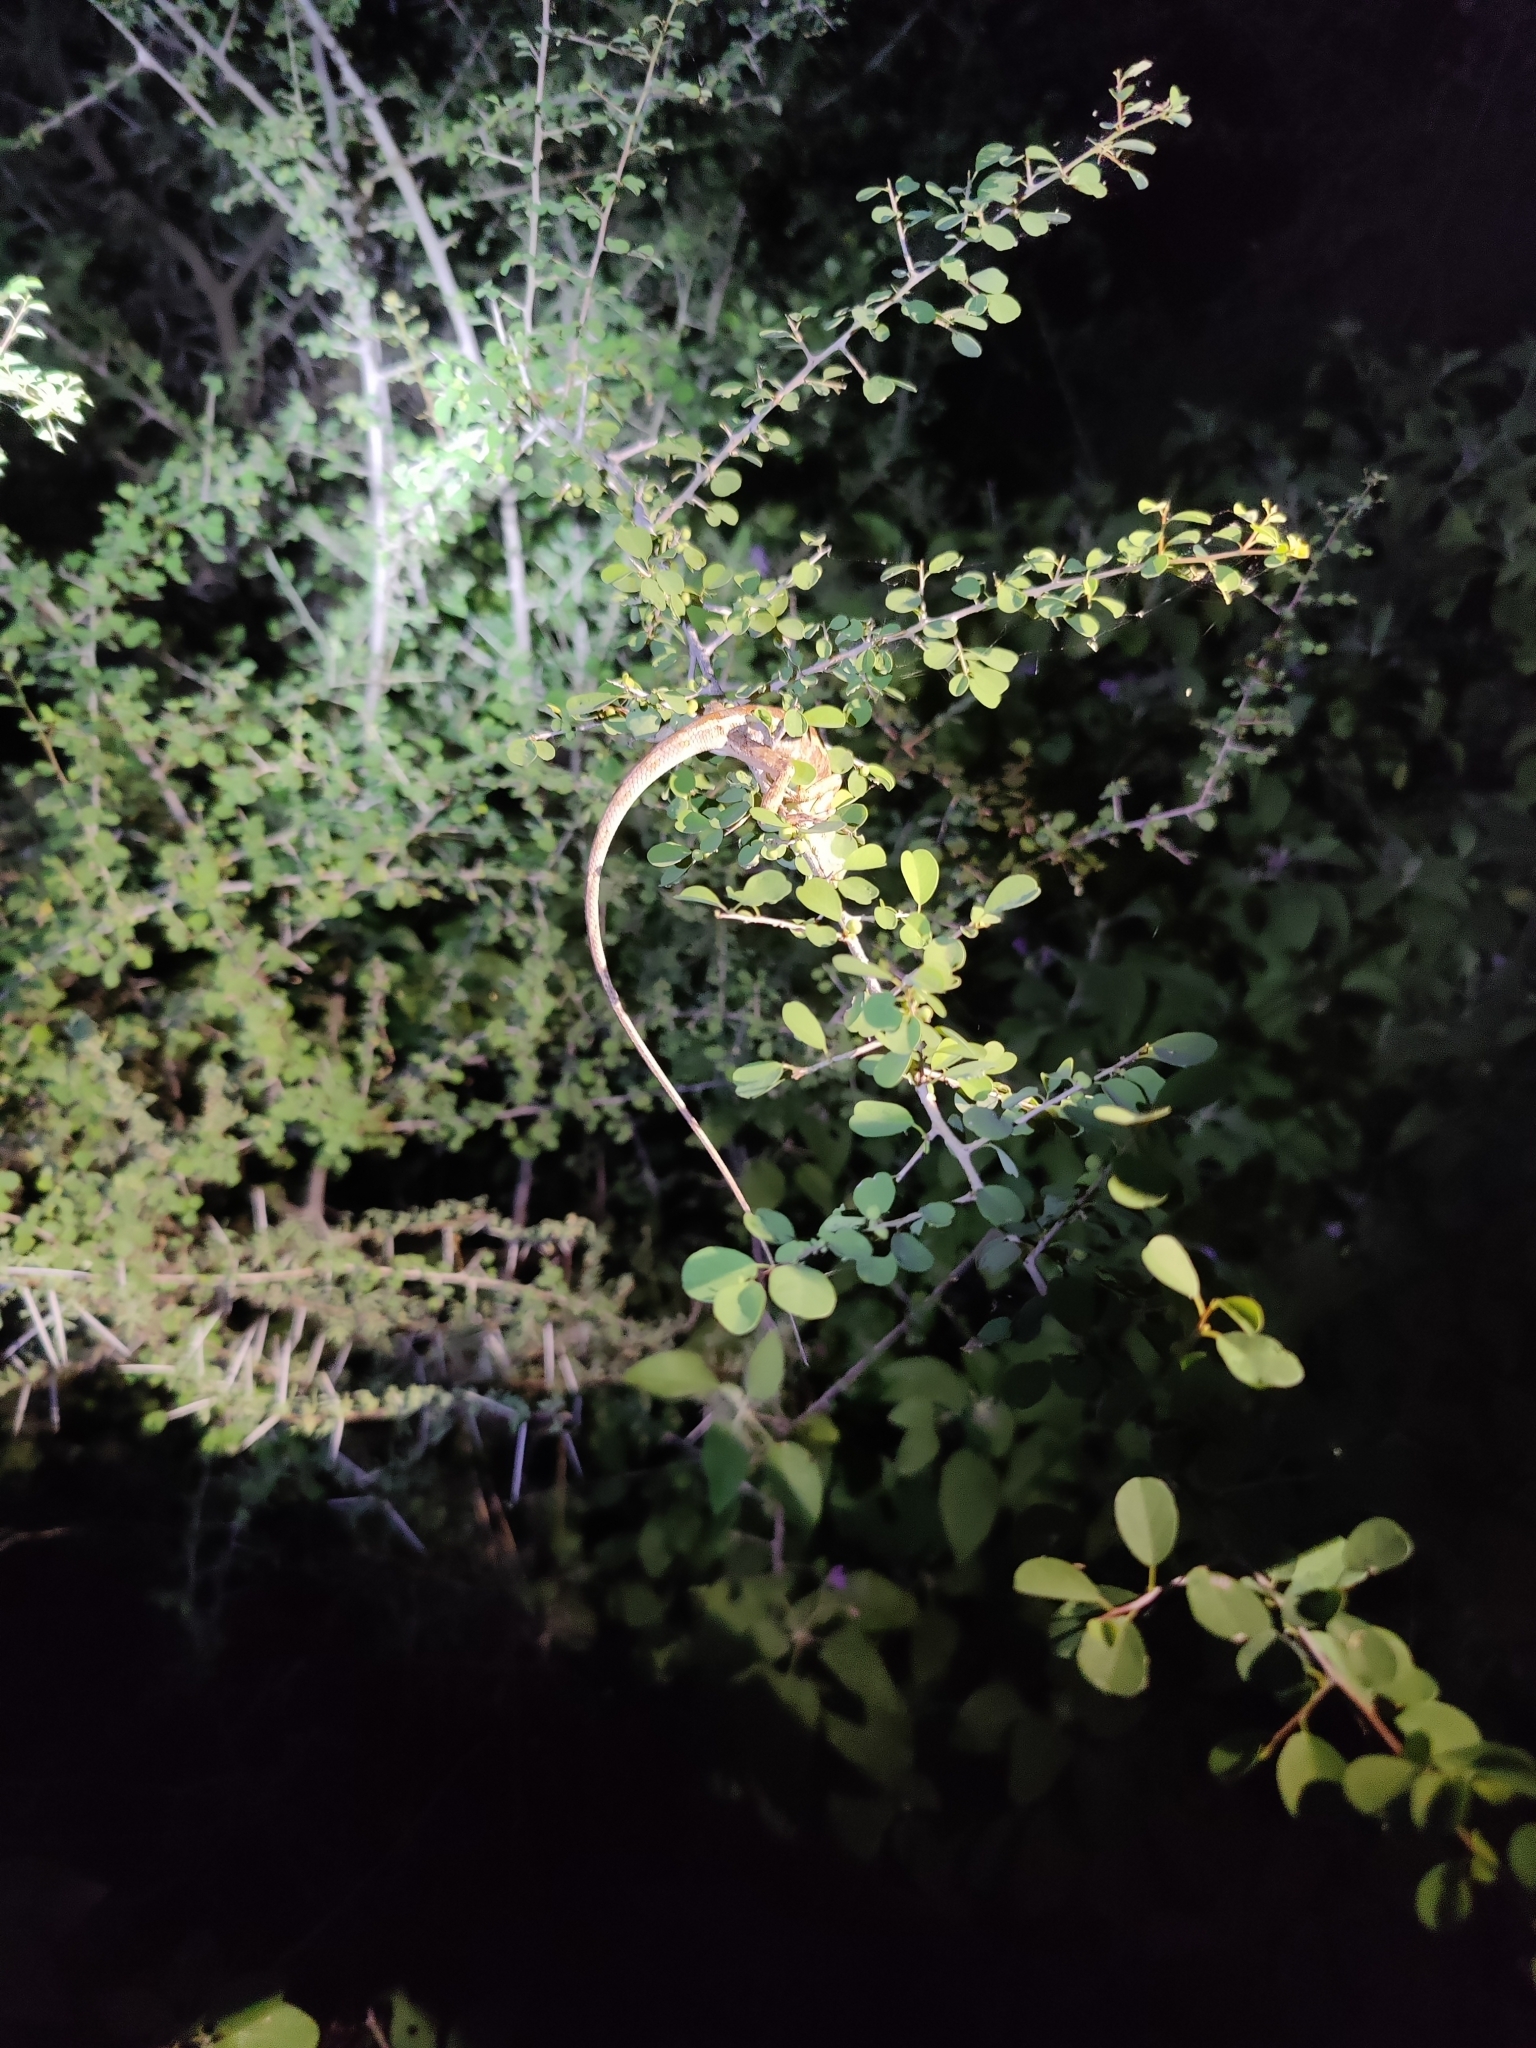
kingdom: Animalia
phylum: Chordata
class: Squamata
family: Agamidae
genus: Calotes
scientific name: Calotes versicolor
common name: Oriental garden lizard
